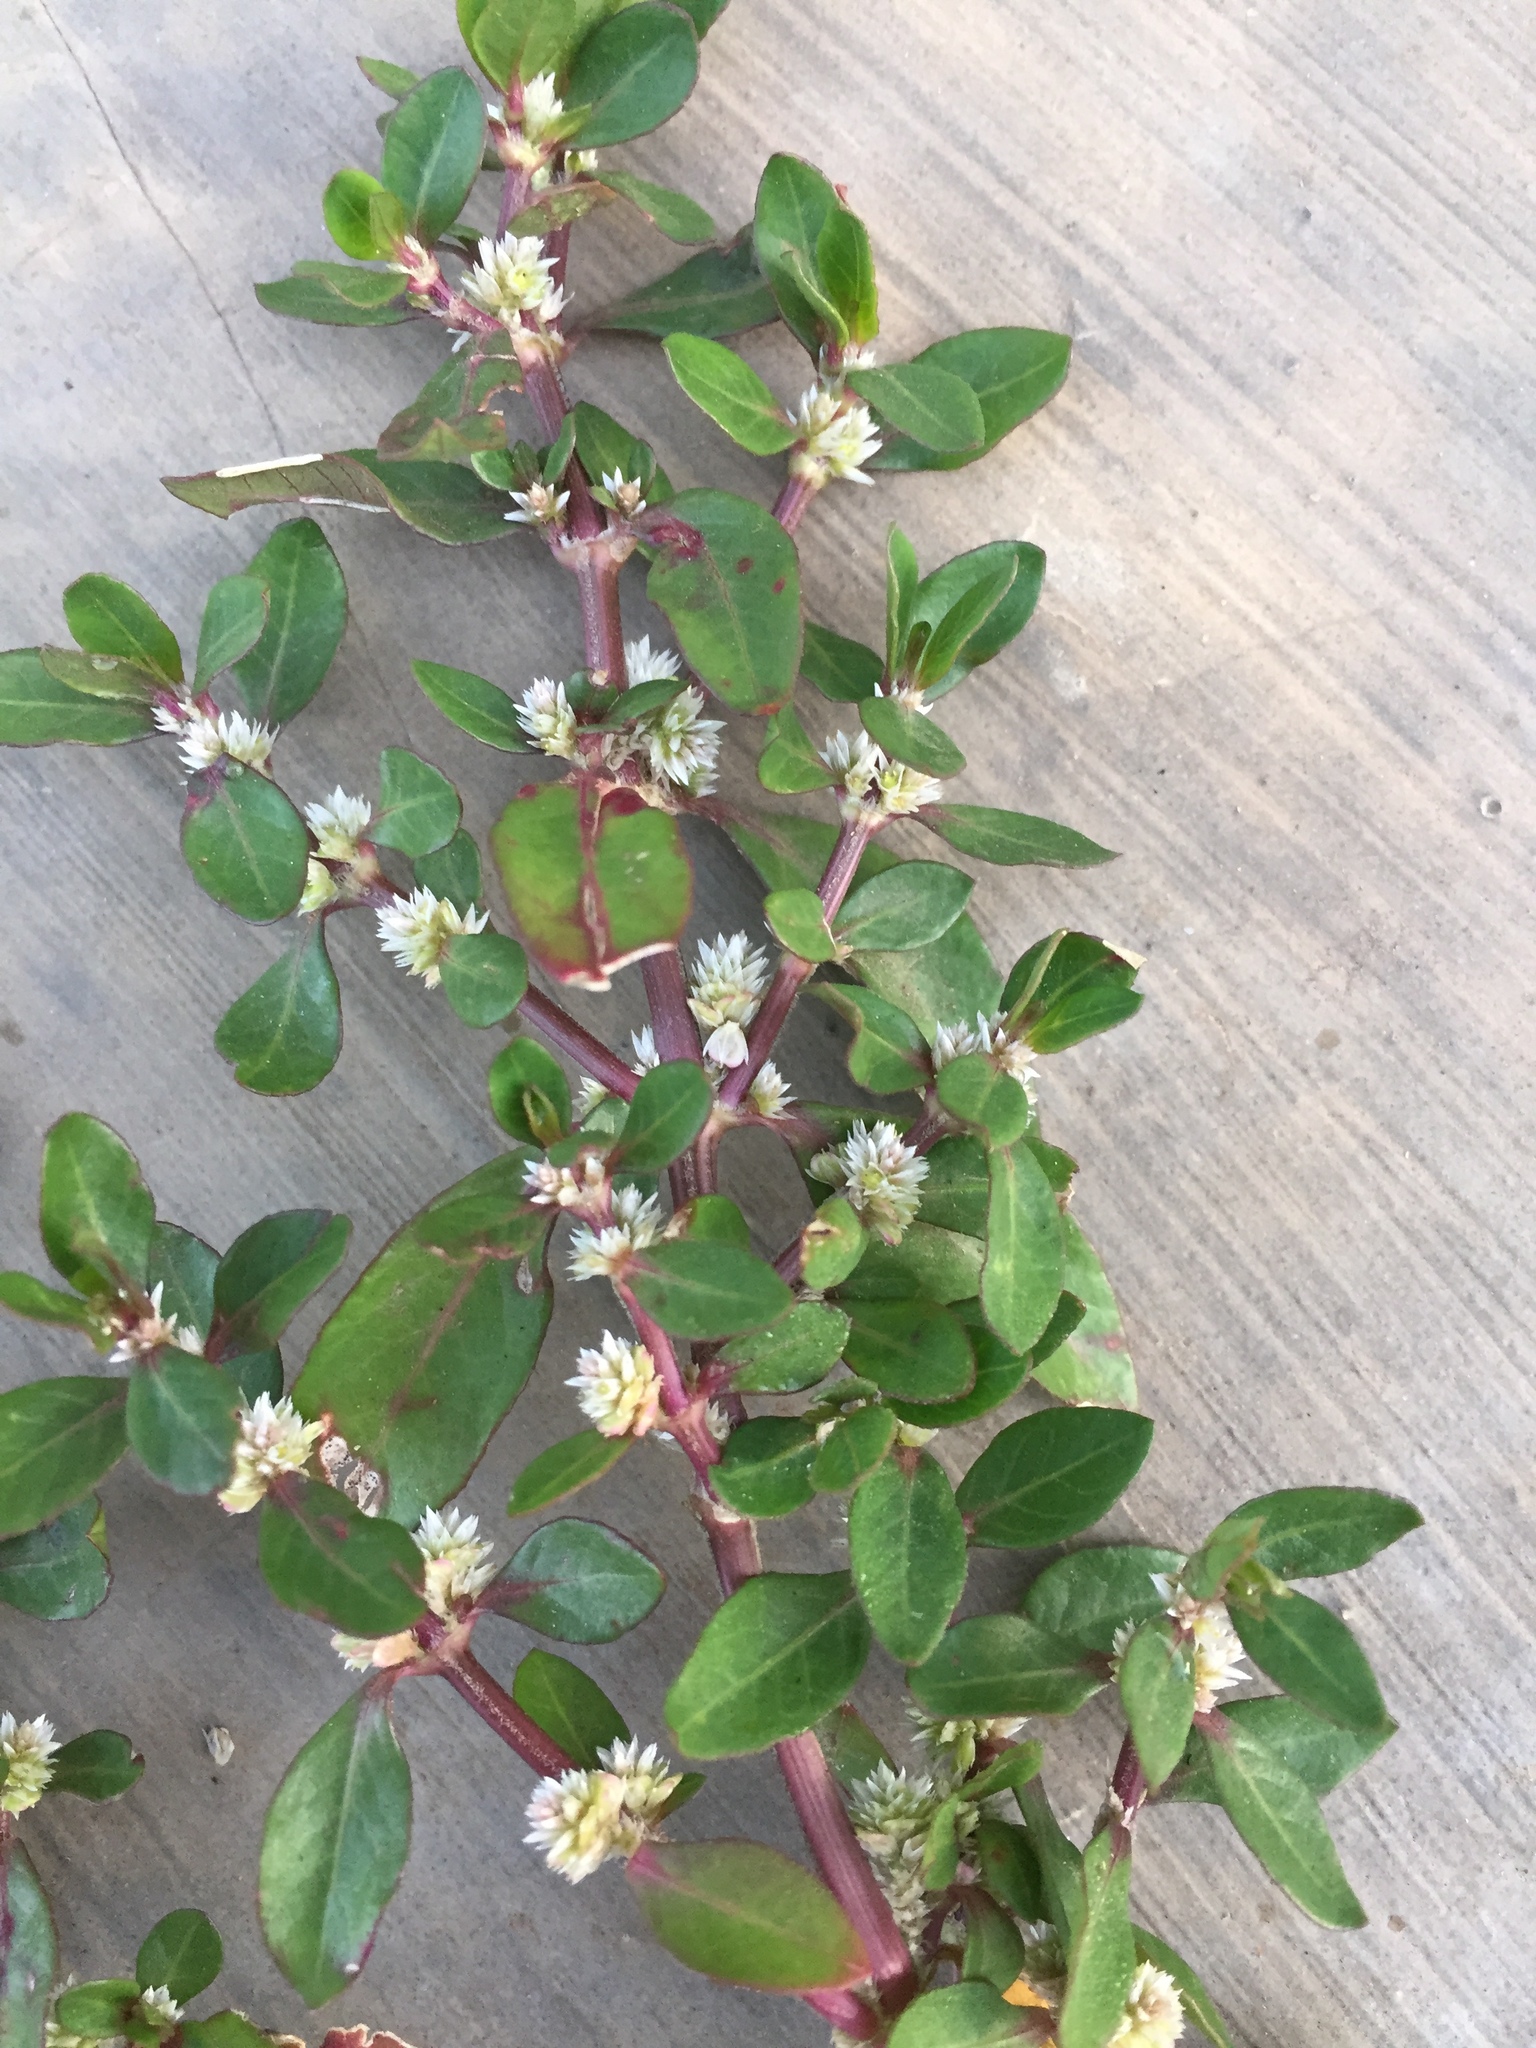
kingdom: Plantae
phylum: Tracheophyta
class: Magnoliopsida
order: Caryophyllales
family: Amaranthaceae
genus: Alternanthera
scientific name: Alternanthera caracasana
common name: Washerwoman
